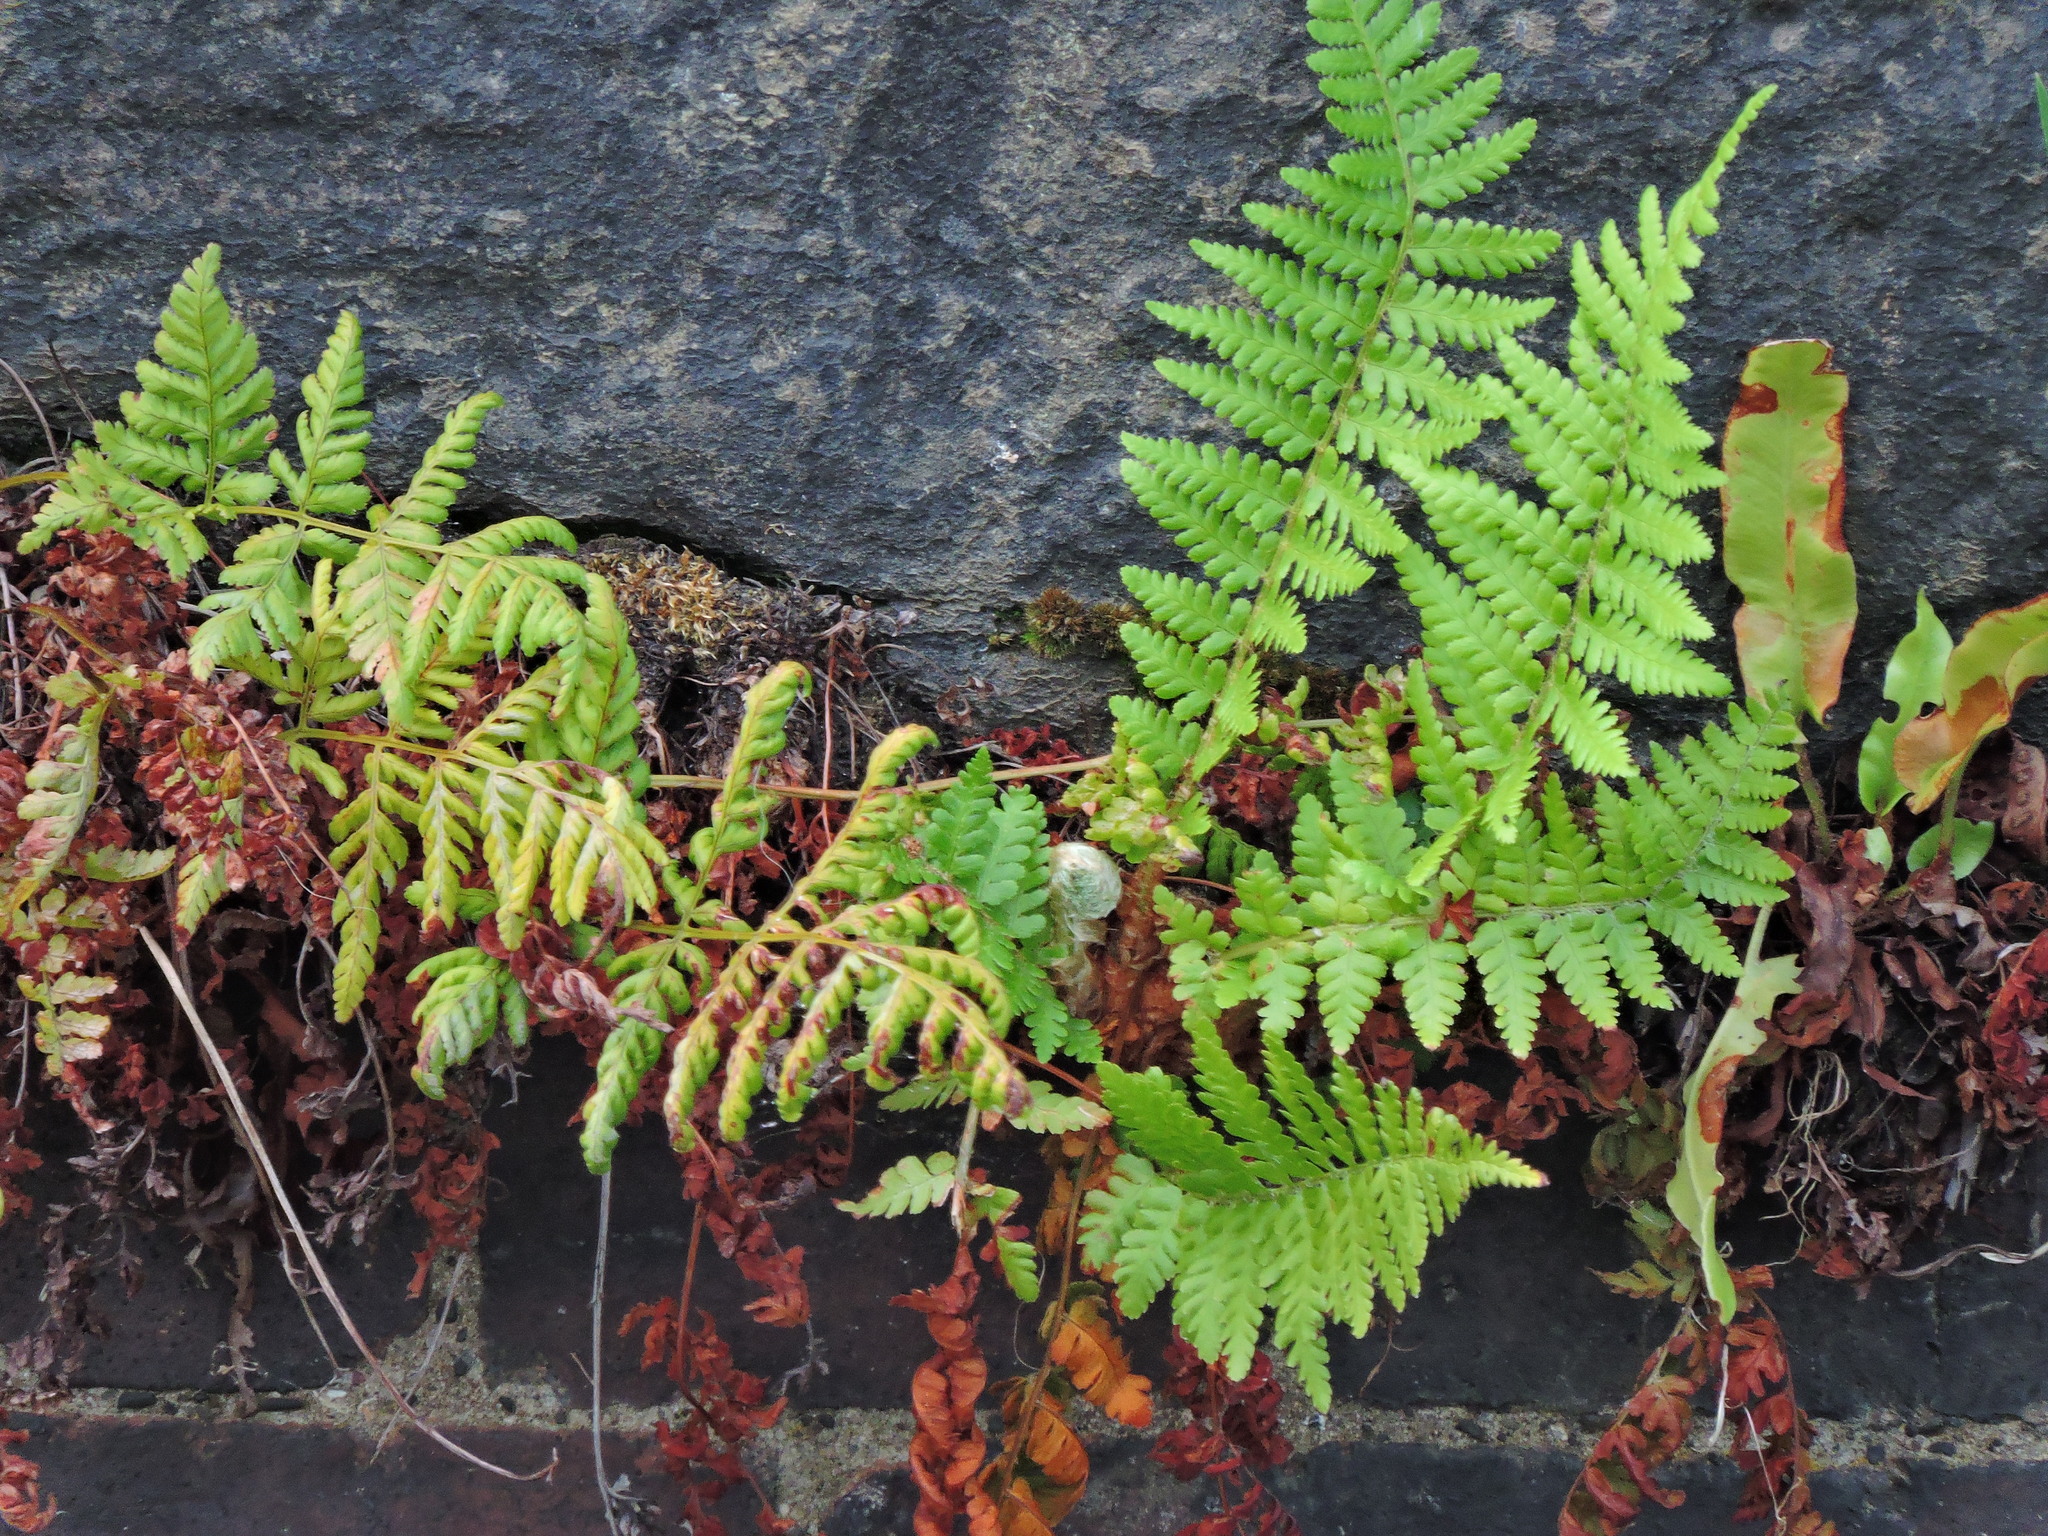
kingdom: Plantae
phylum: Tracheophyta
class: Polypodiopsida
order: Polypodiales
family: Dryopteridaceae
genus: Dryopteris
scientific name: Dryopteris filix-mas
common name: Male fern
